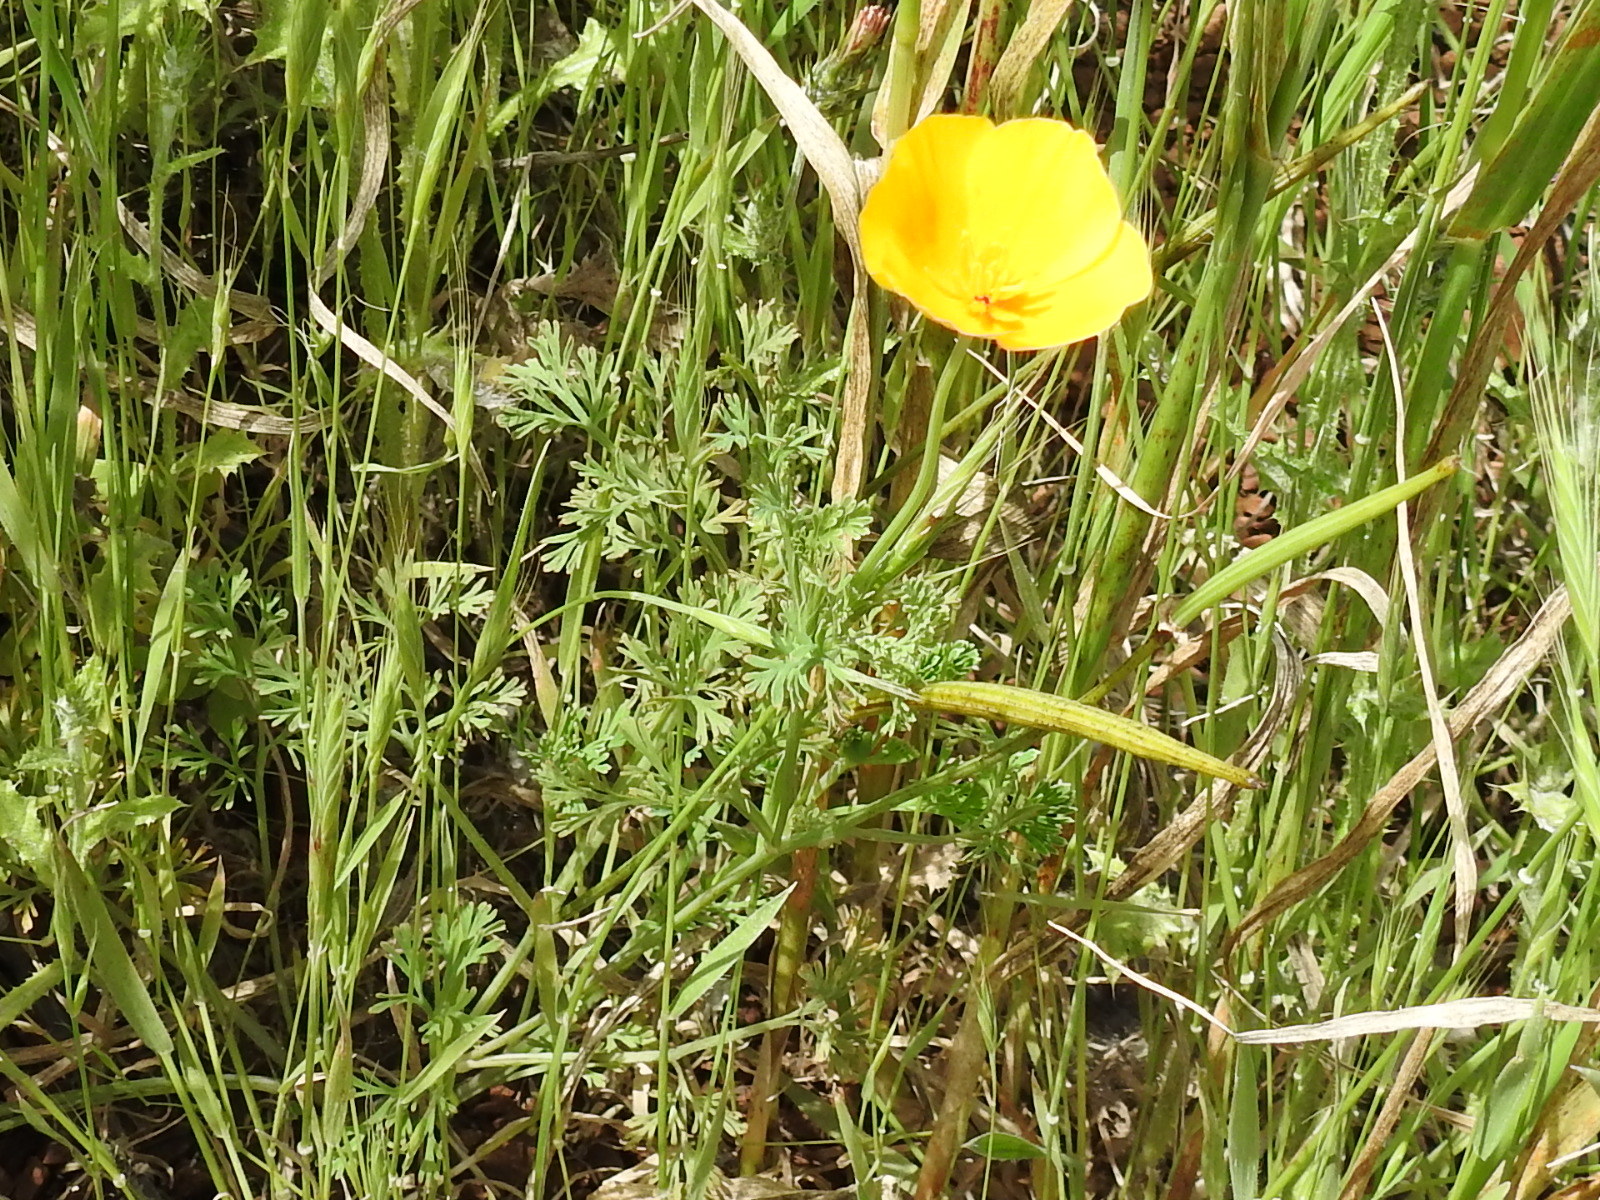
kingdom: Plantae
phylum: Tracheophyta
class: Magnoliopsida
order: Ranunculales
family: Papaveraceae
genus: Eschscholzia
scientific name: Eschscholzia californica
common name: California poppy
